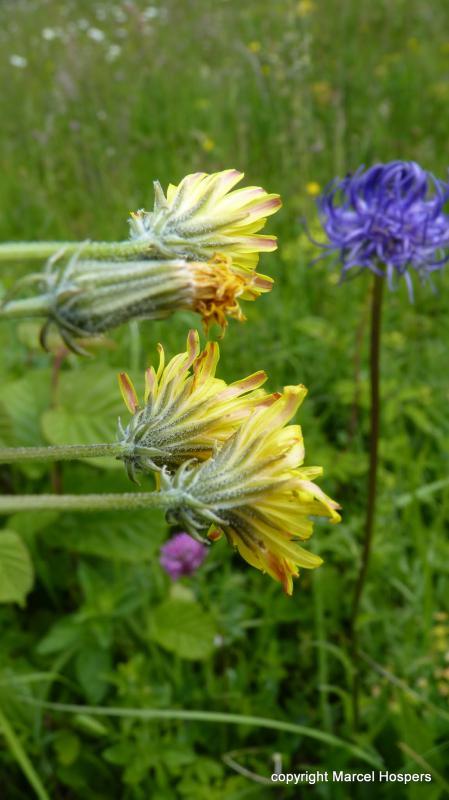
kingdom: Plantae
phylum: Tracheophyta
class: Magnoliopsida
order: Asterales
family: Asteraceae
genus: Crepis
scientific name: Crepis vesicaria
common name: Beaked hawksbeard
